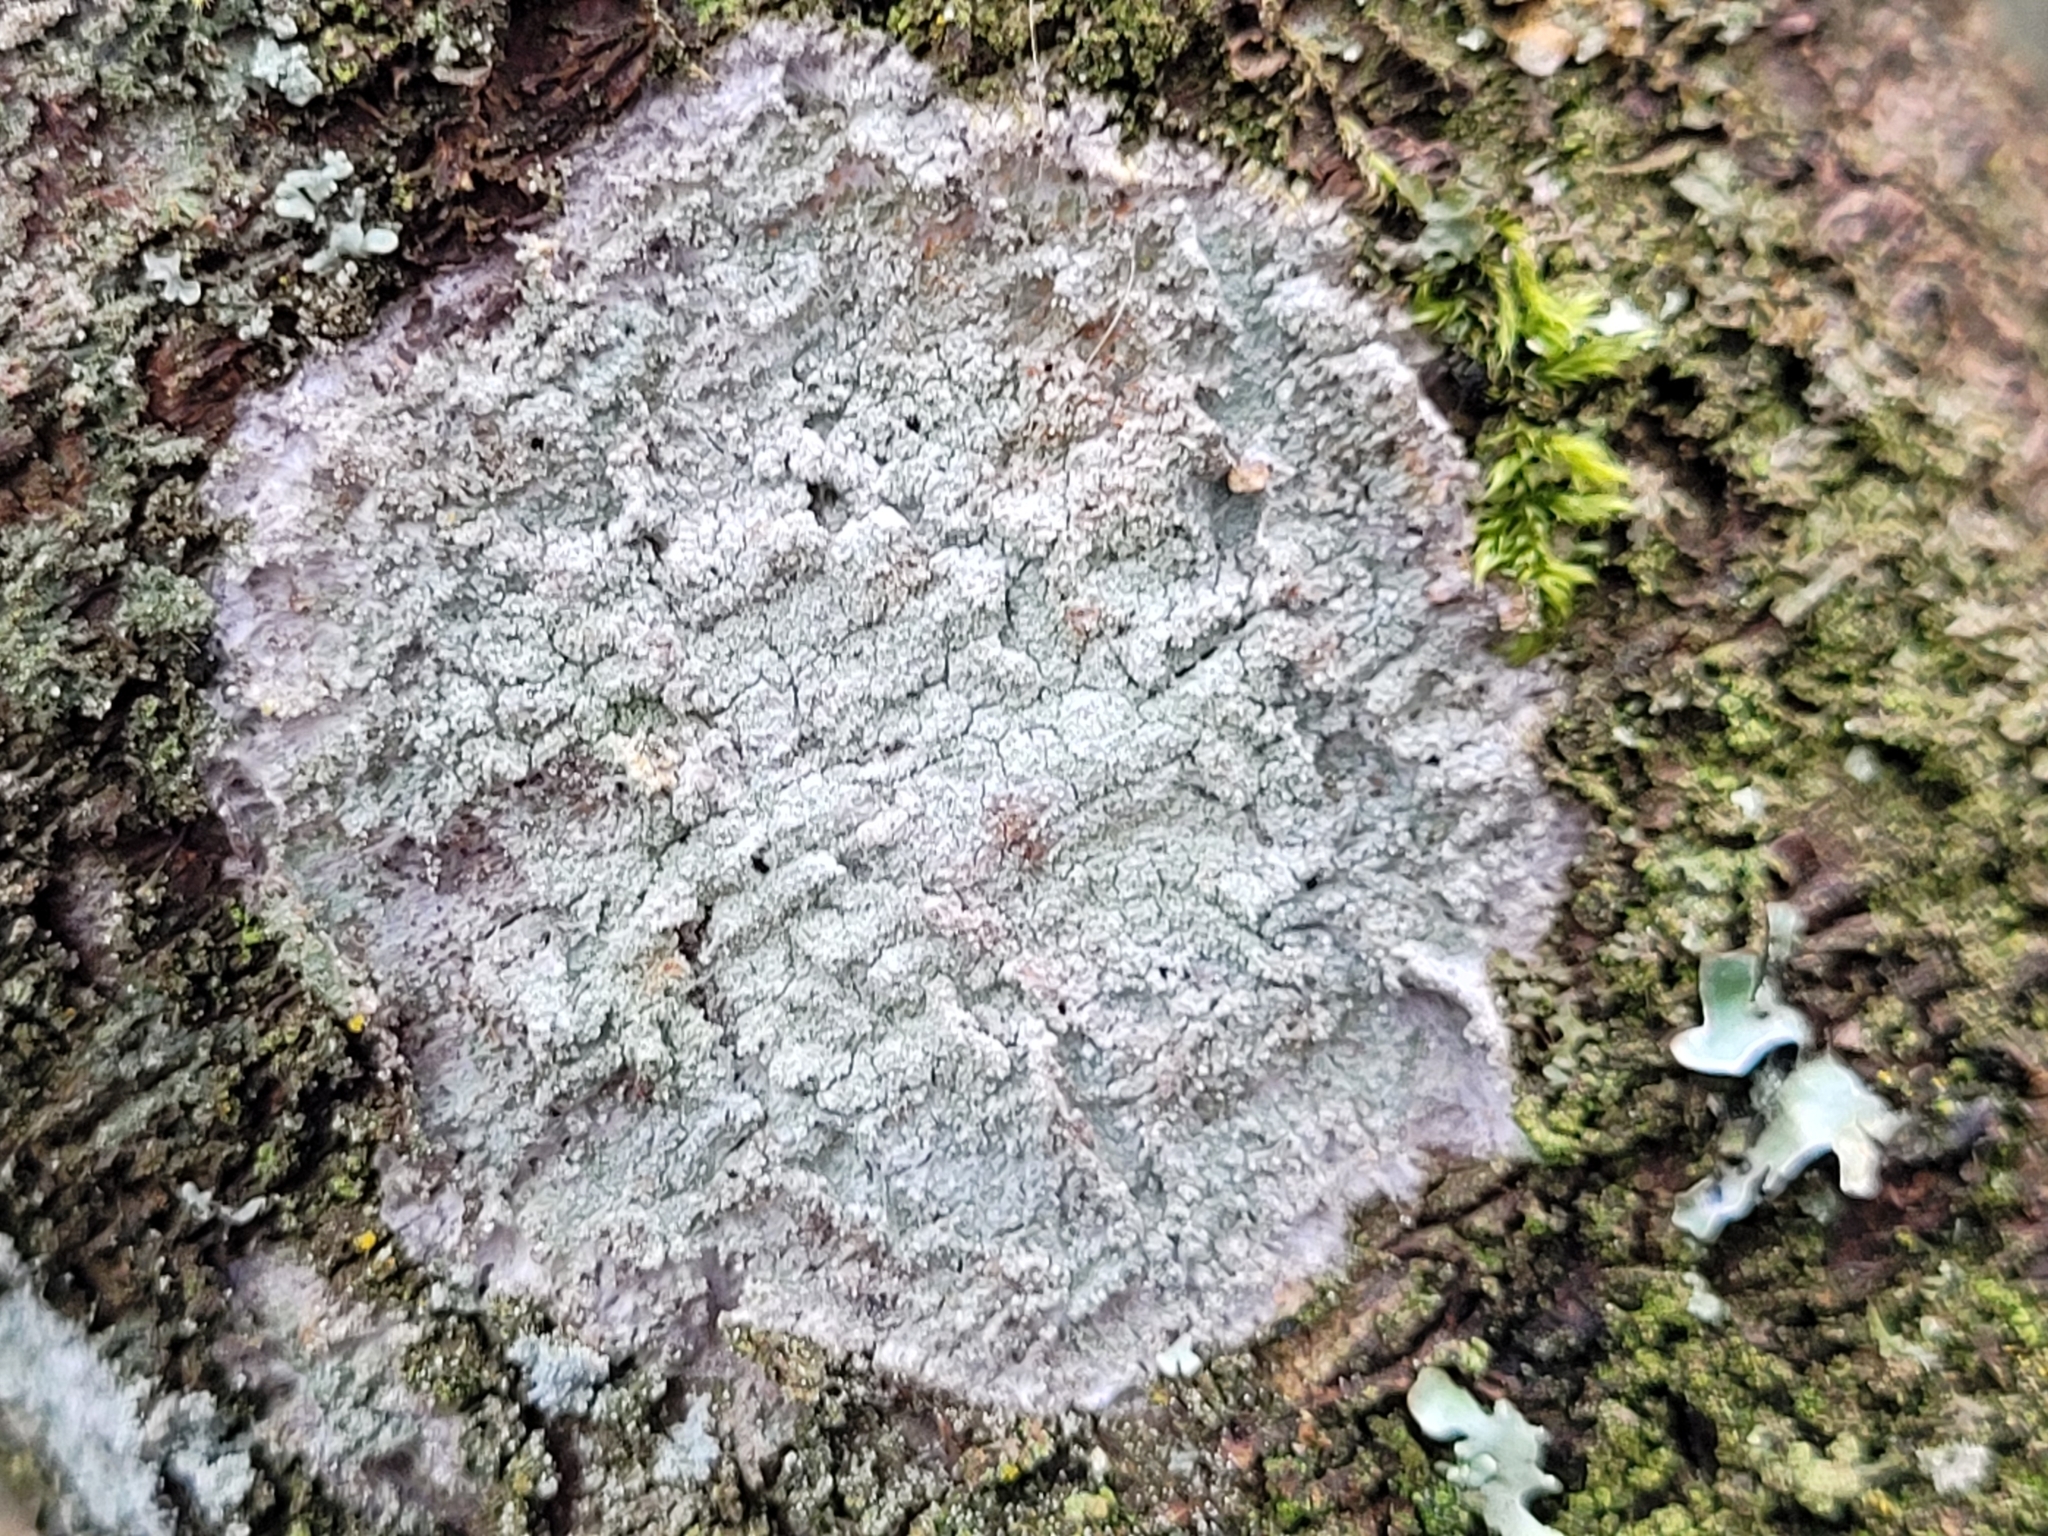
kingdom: Fungi
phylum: Ascomycota
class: Lecanoromycetes
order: Ostropales
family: Phlyctidaceae
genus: Phlyctis
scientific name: Phlyctis argena
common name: Whitewash lichen
